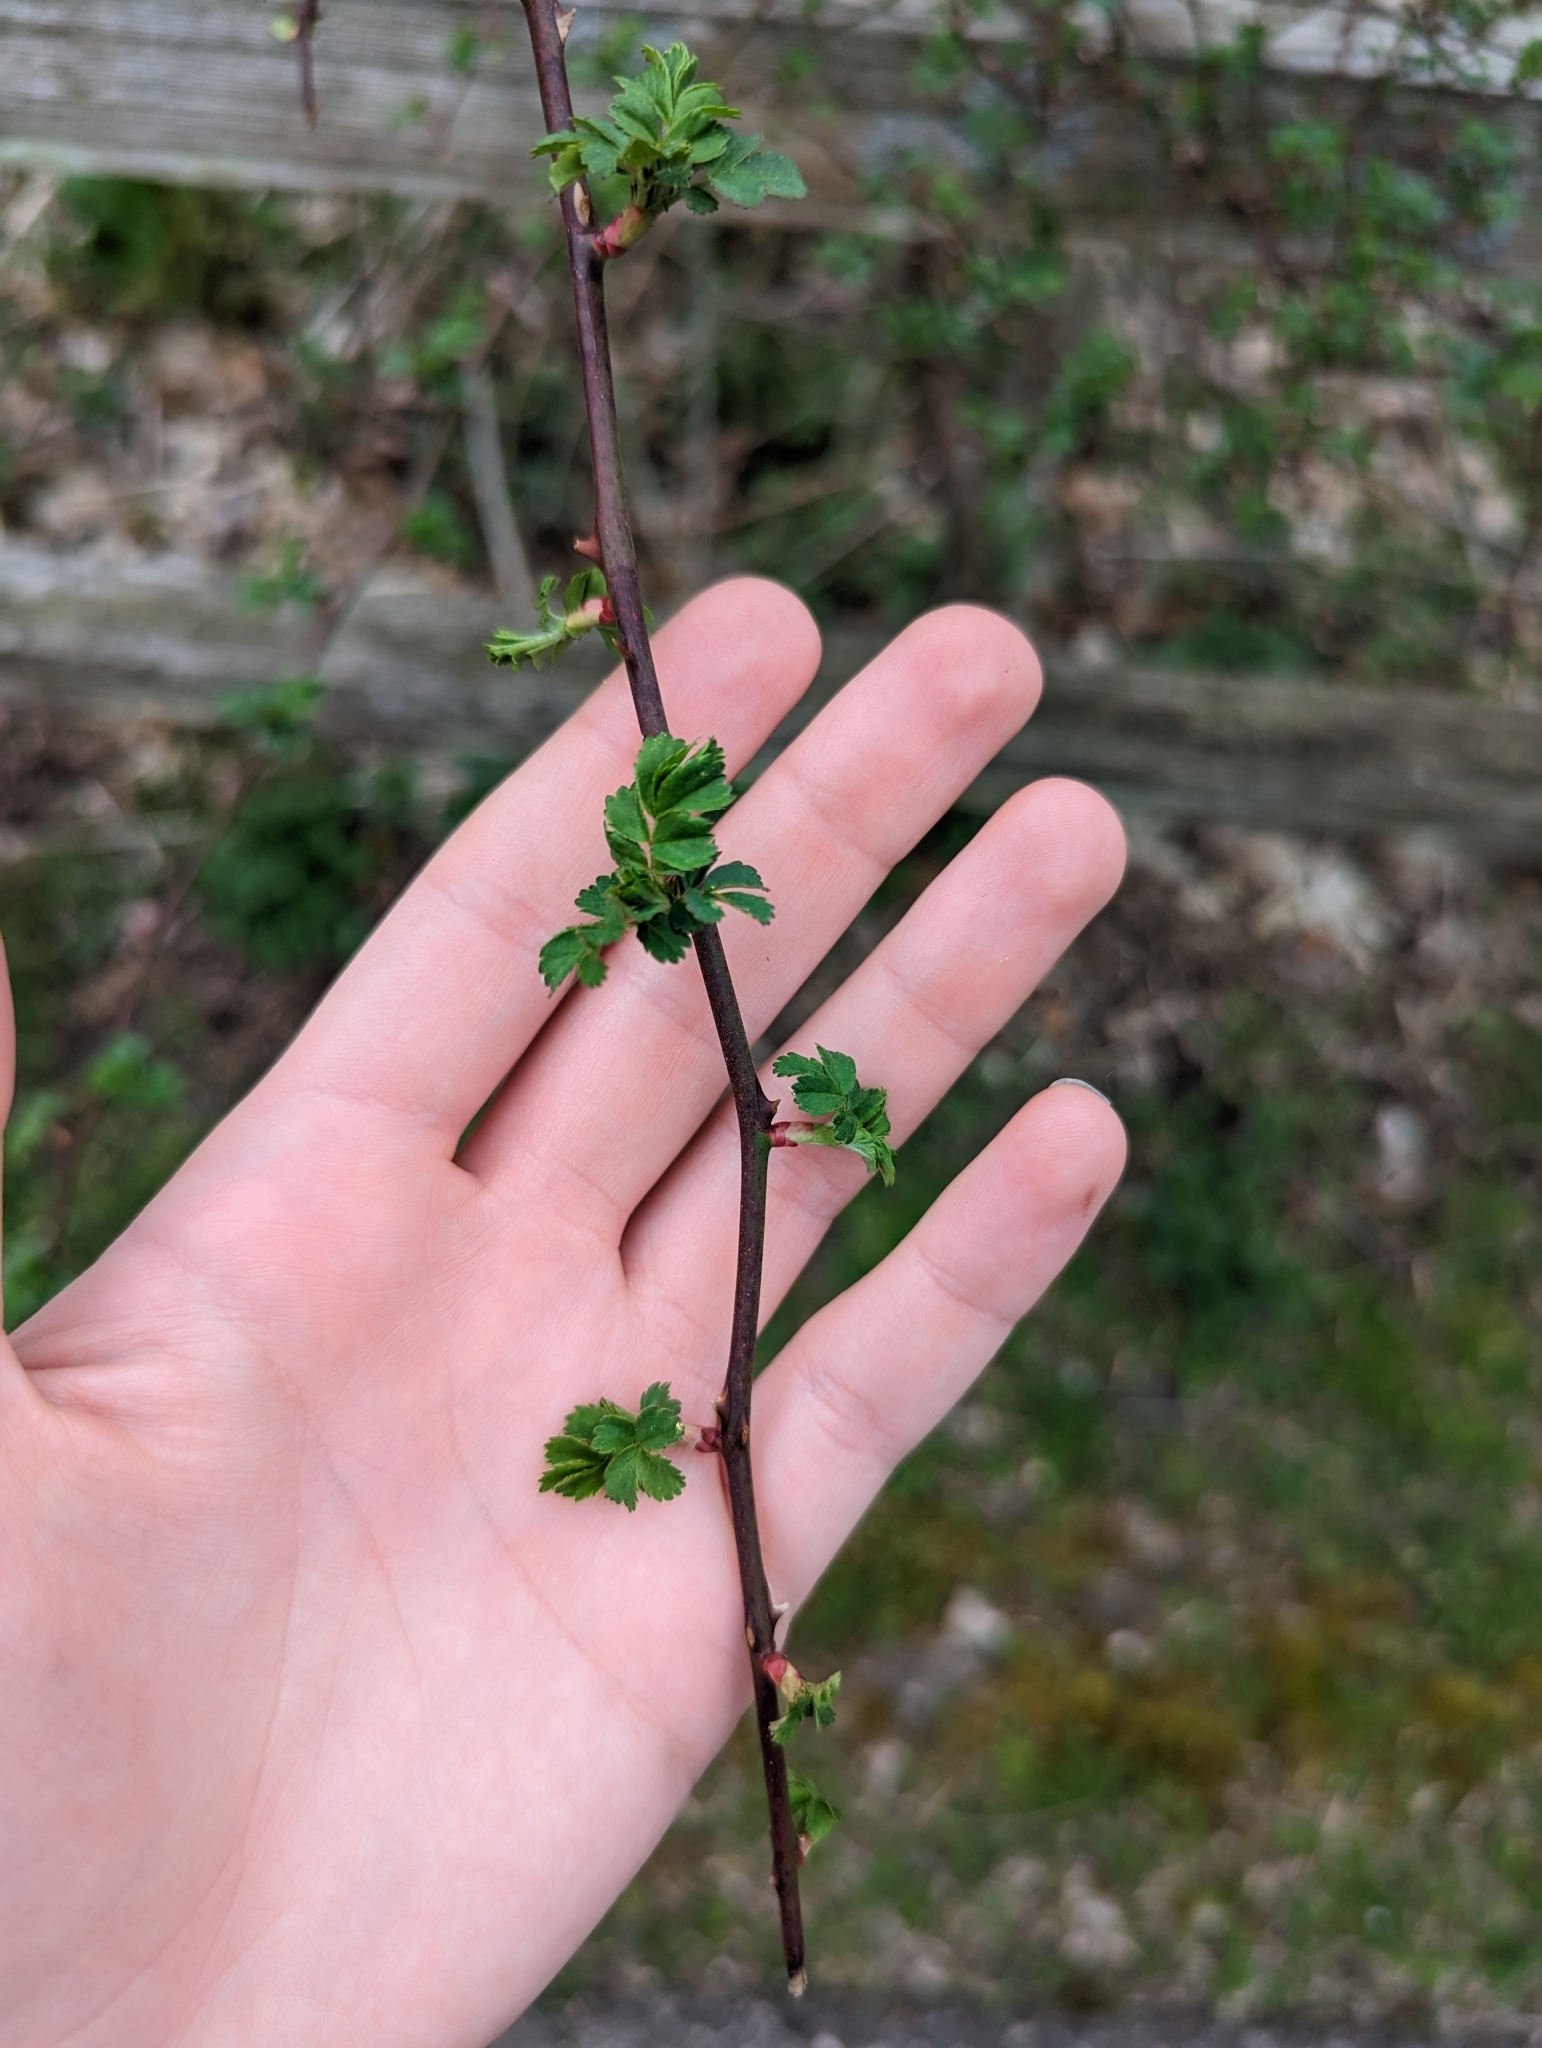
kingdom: Plantae
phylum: Tracheophyta
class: Magnoliopsida
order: Rosales
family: Rosaceae
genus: Rosa
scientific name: Rosa multiflora
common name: Multiflora rose
